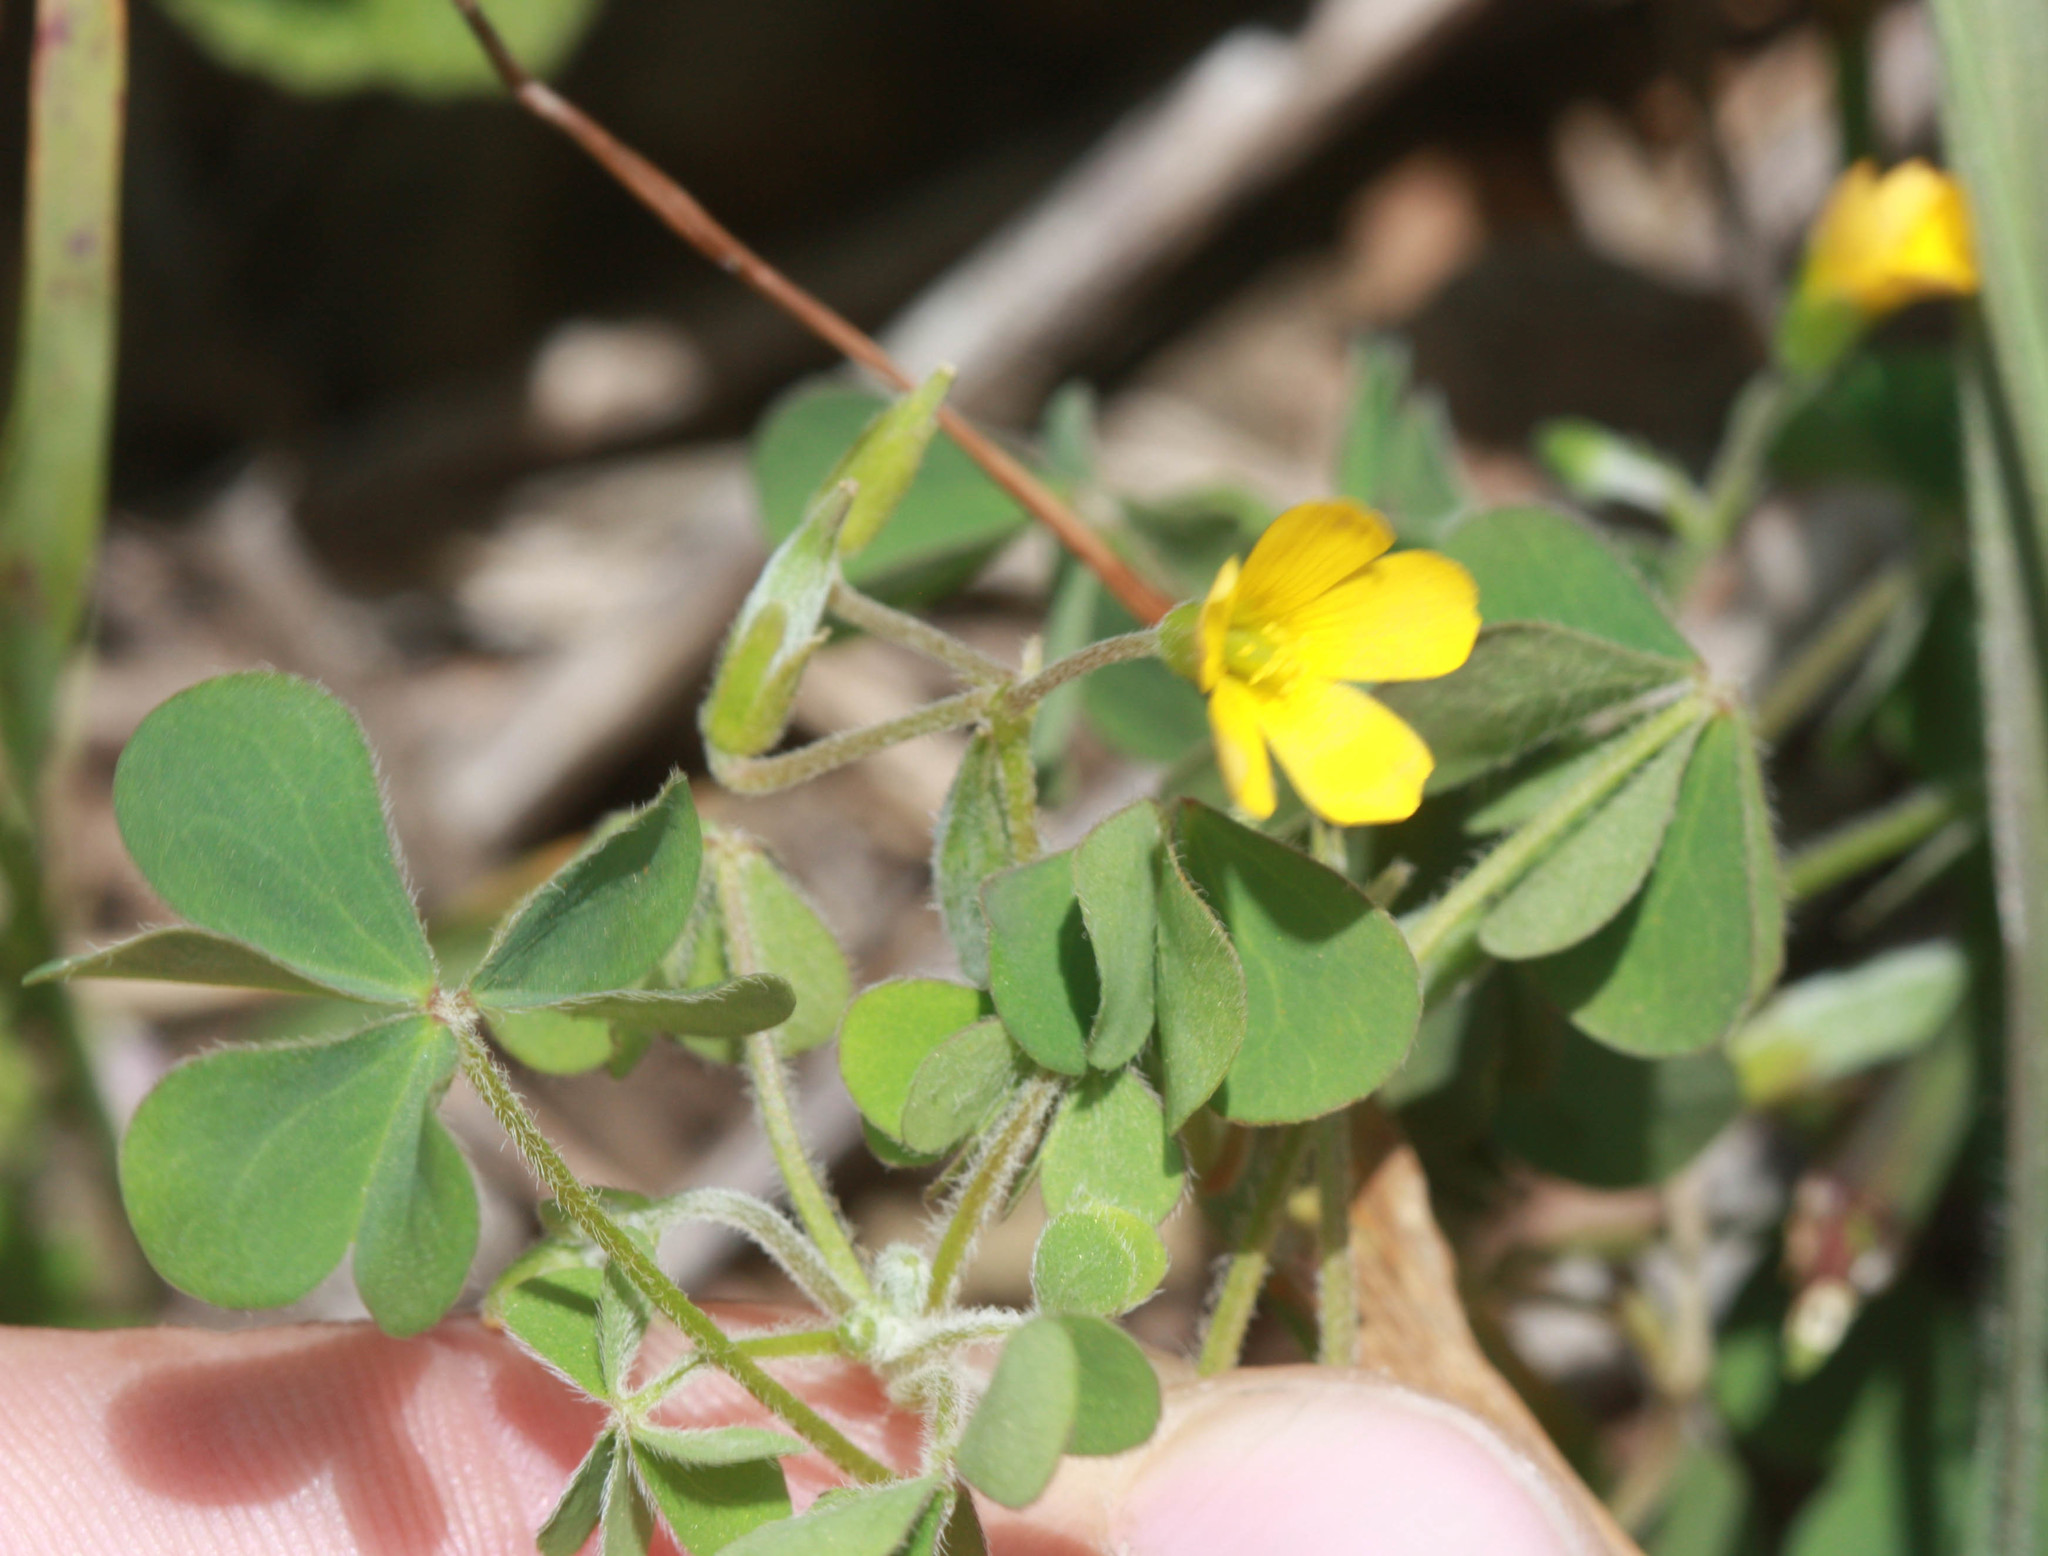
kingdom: Plantae
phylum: Tracheophyta
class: Magnoliopsida
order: Oxalidales
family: Oxalidaceae
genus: Oxalis
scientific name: Oxalis pilosa
